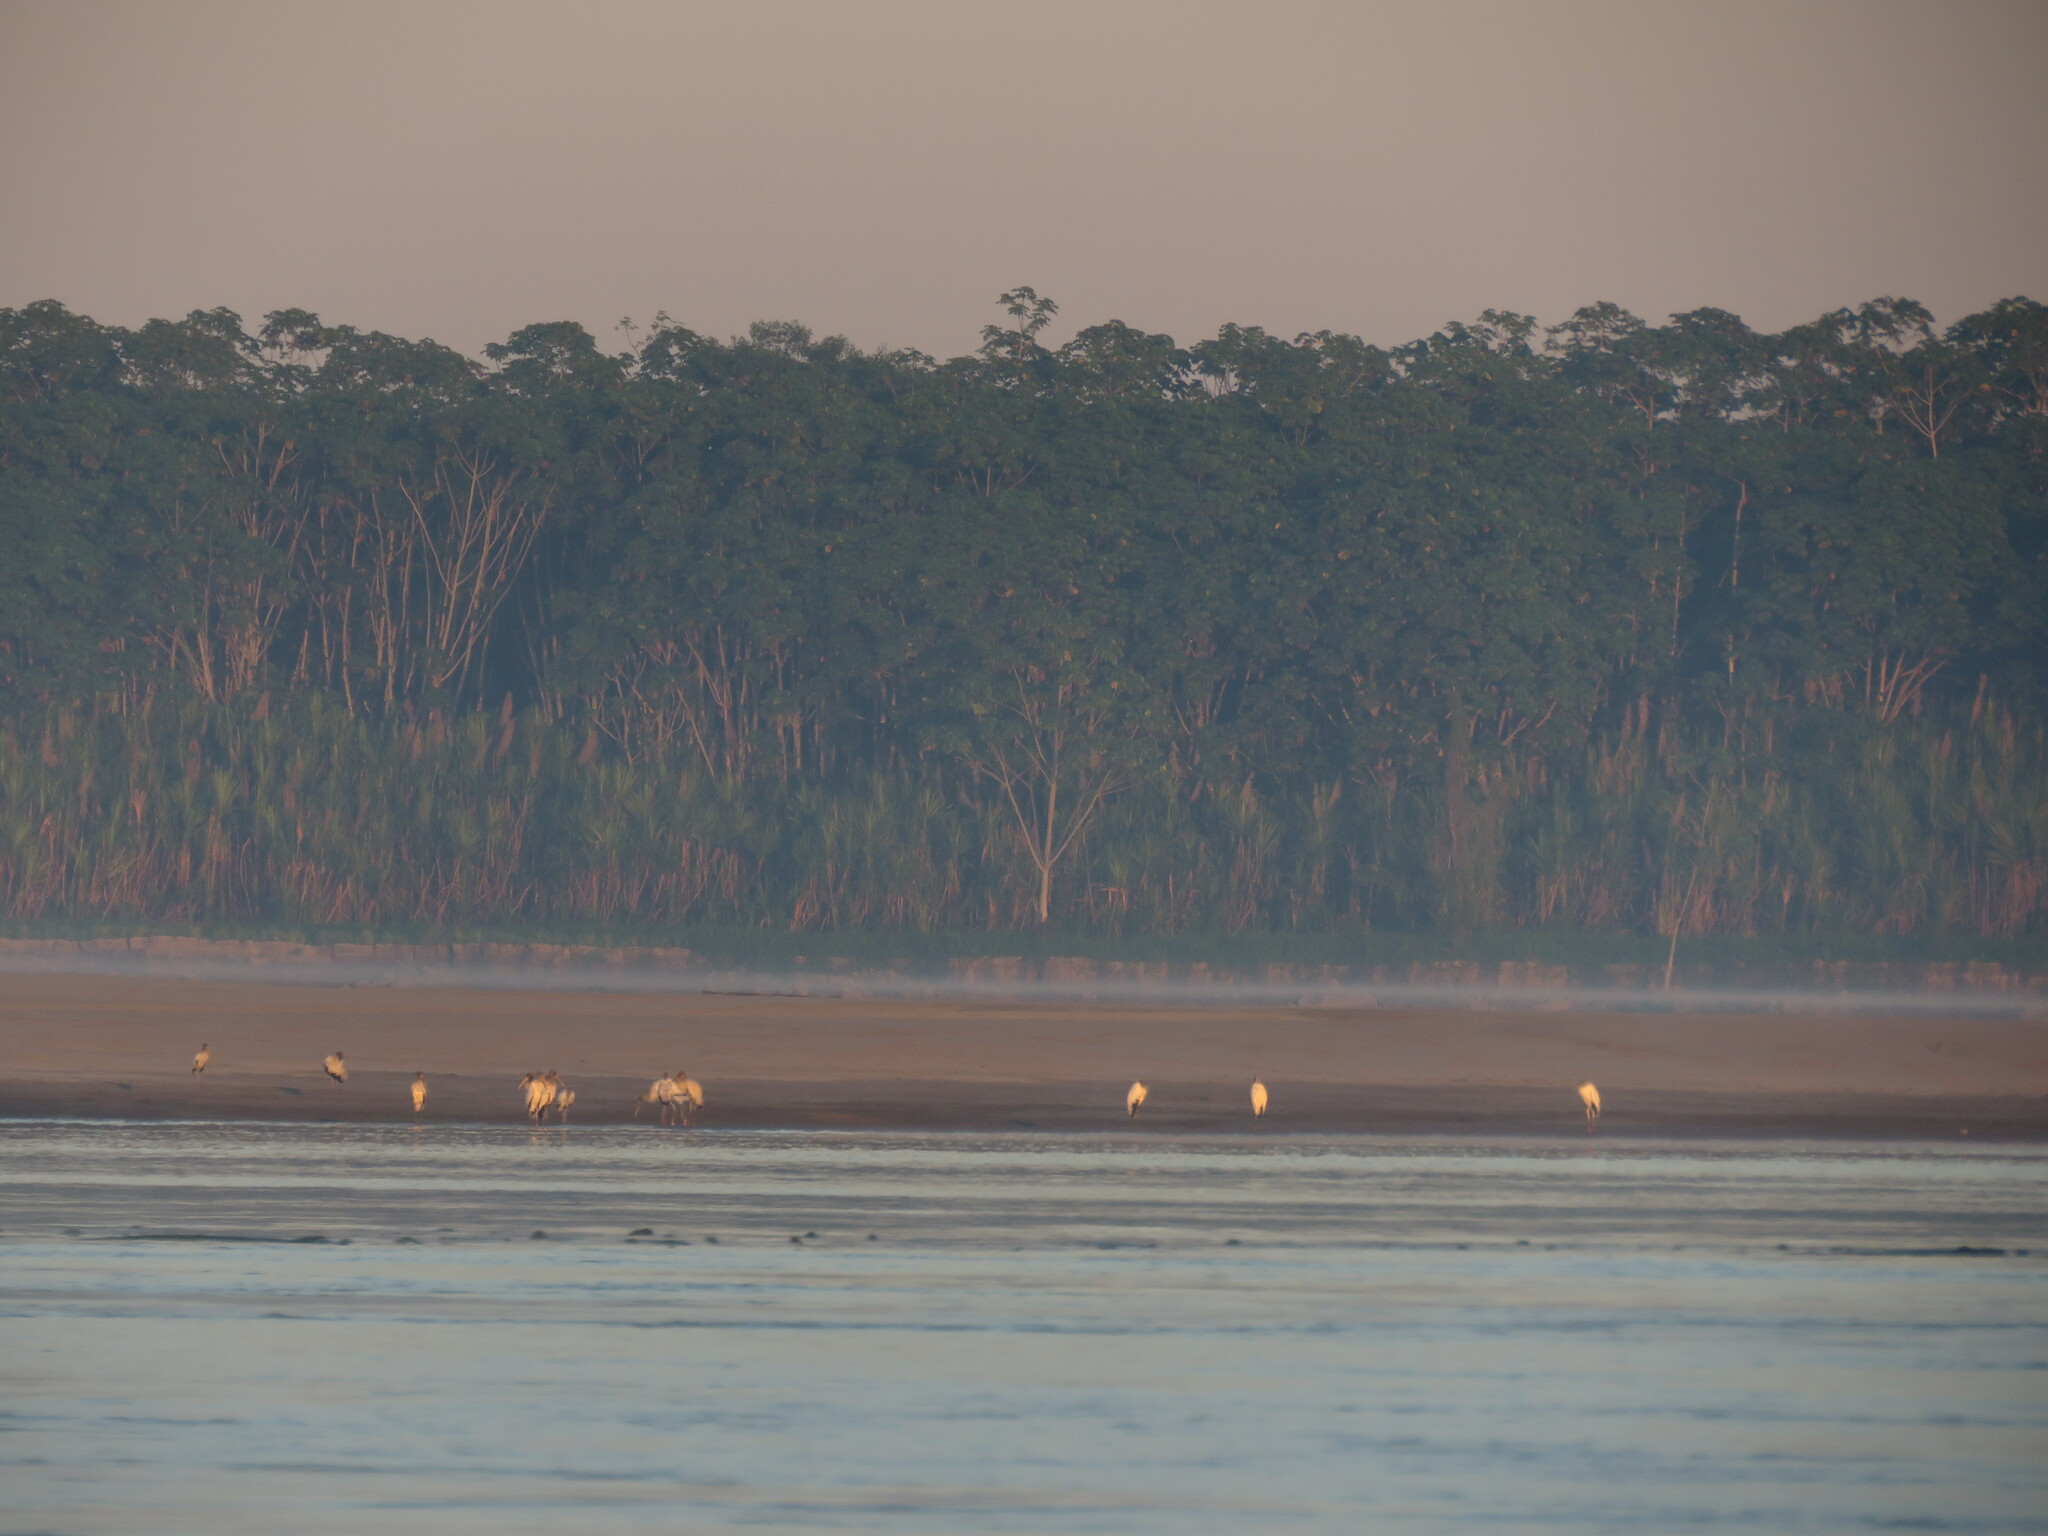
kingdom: Animalia
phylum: Chordata
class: Aves
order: Ciconiiformes
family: Ciconiidae
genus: Mycteria
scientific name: Mycteria americana
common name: Wood stork
